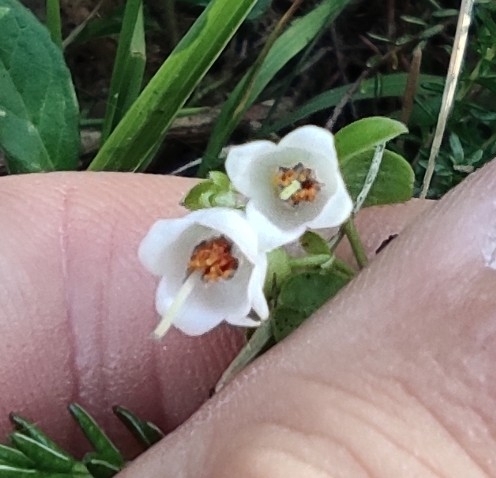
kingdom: Plantae
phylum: Tracheophyta
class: Magnoliopsida
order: Ericales
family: Ericaceae
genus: Vaccinium
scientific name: Vaccinium vitis-idaea
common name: Cowberry
